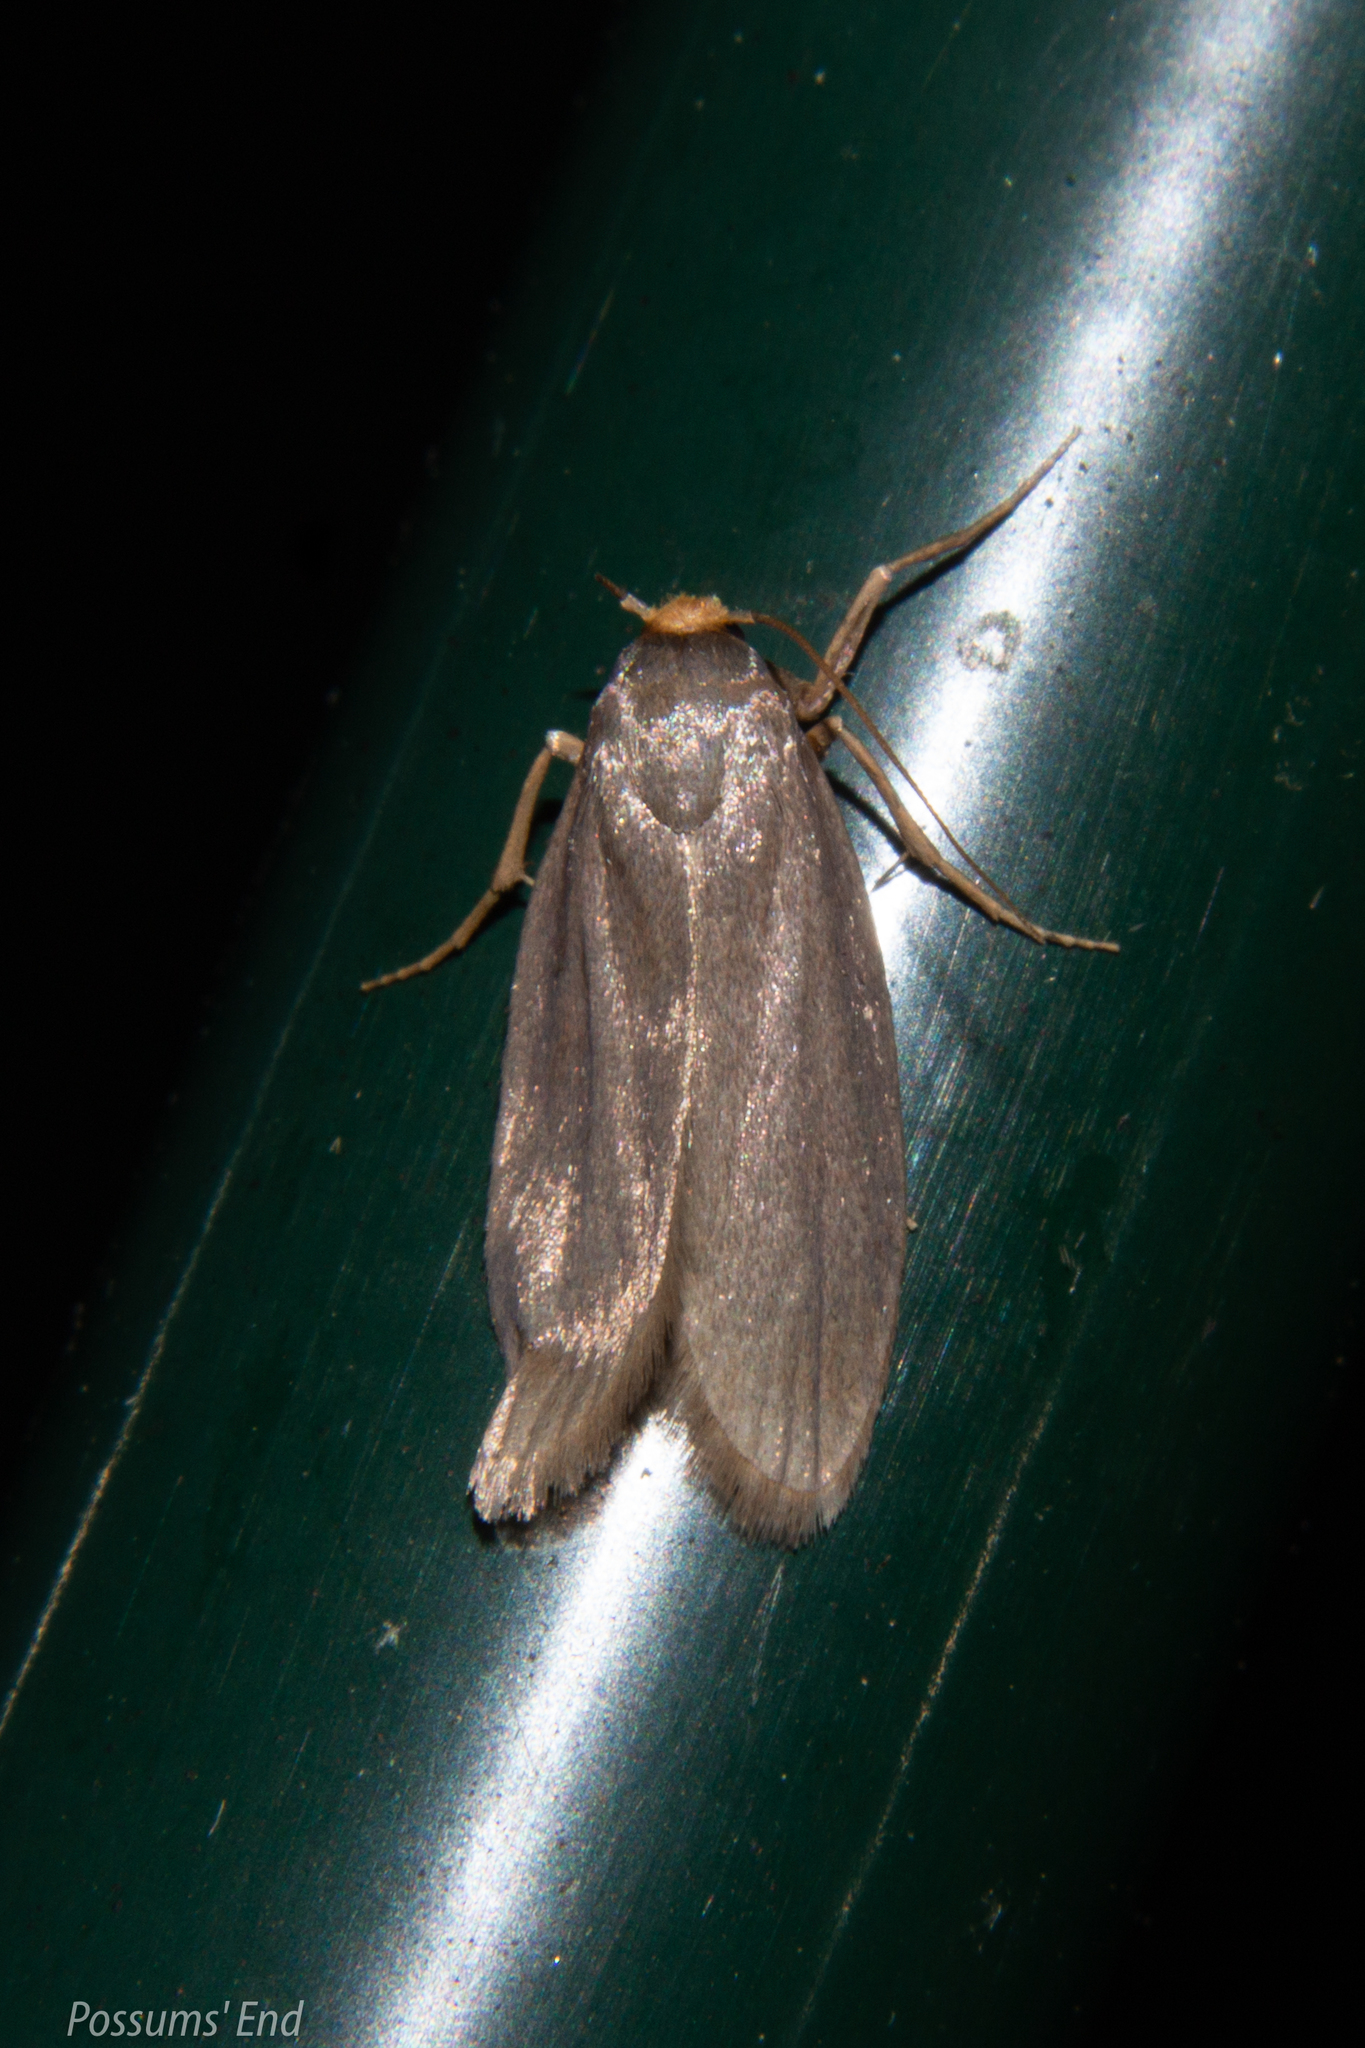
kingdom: Animalia
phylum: Arthropoda
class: Insecta
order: Lepidoptera
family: Pyralidae
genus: Achroia
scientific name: Achroia grisella
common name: Lesser wax moth
